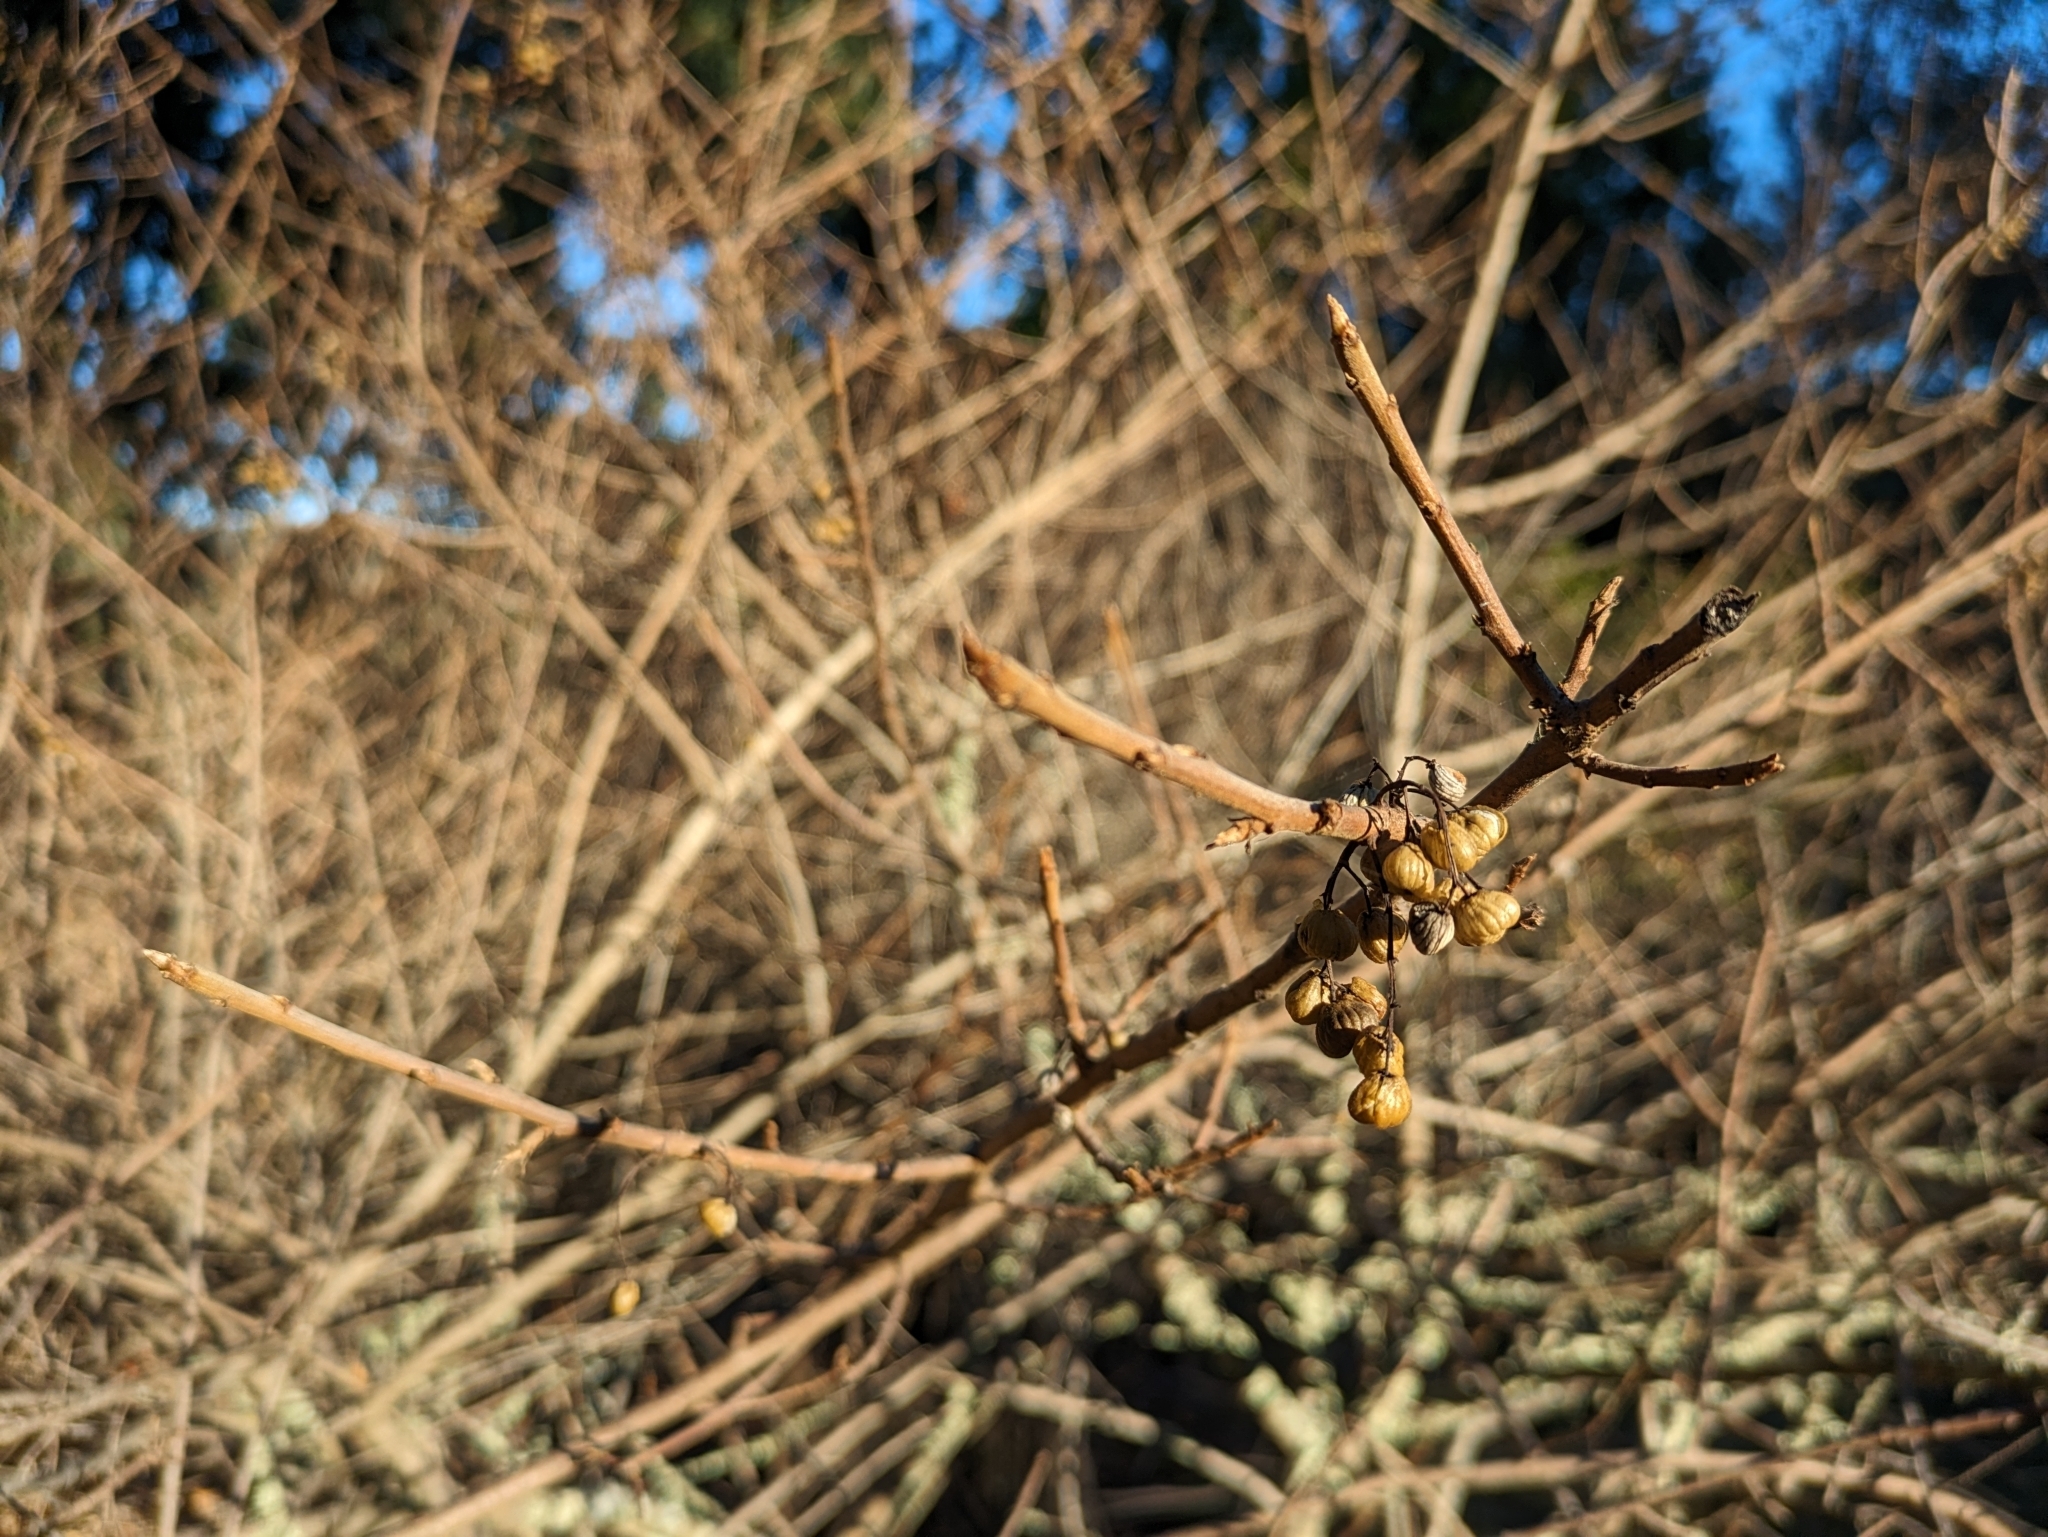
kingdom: Plantae
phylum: Tracheophyta
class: Magnoliopsida
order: Sapindales
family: Anacardiaceae
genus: Toxicodendron
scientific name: Toxicodendron diversilobum
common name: Pacific poison-oak
